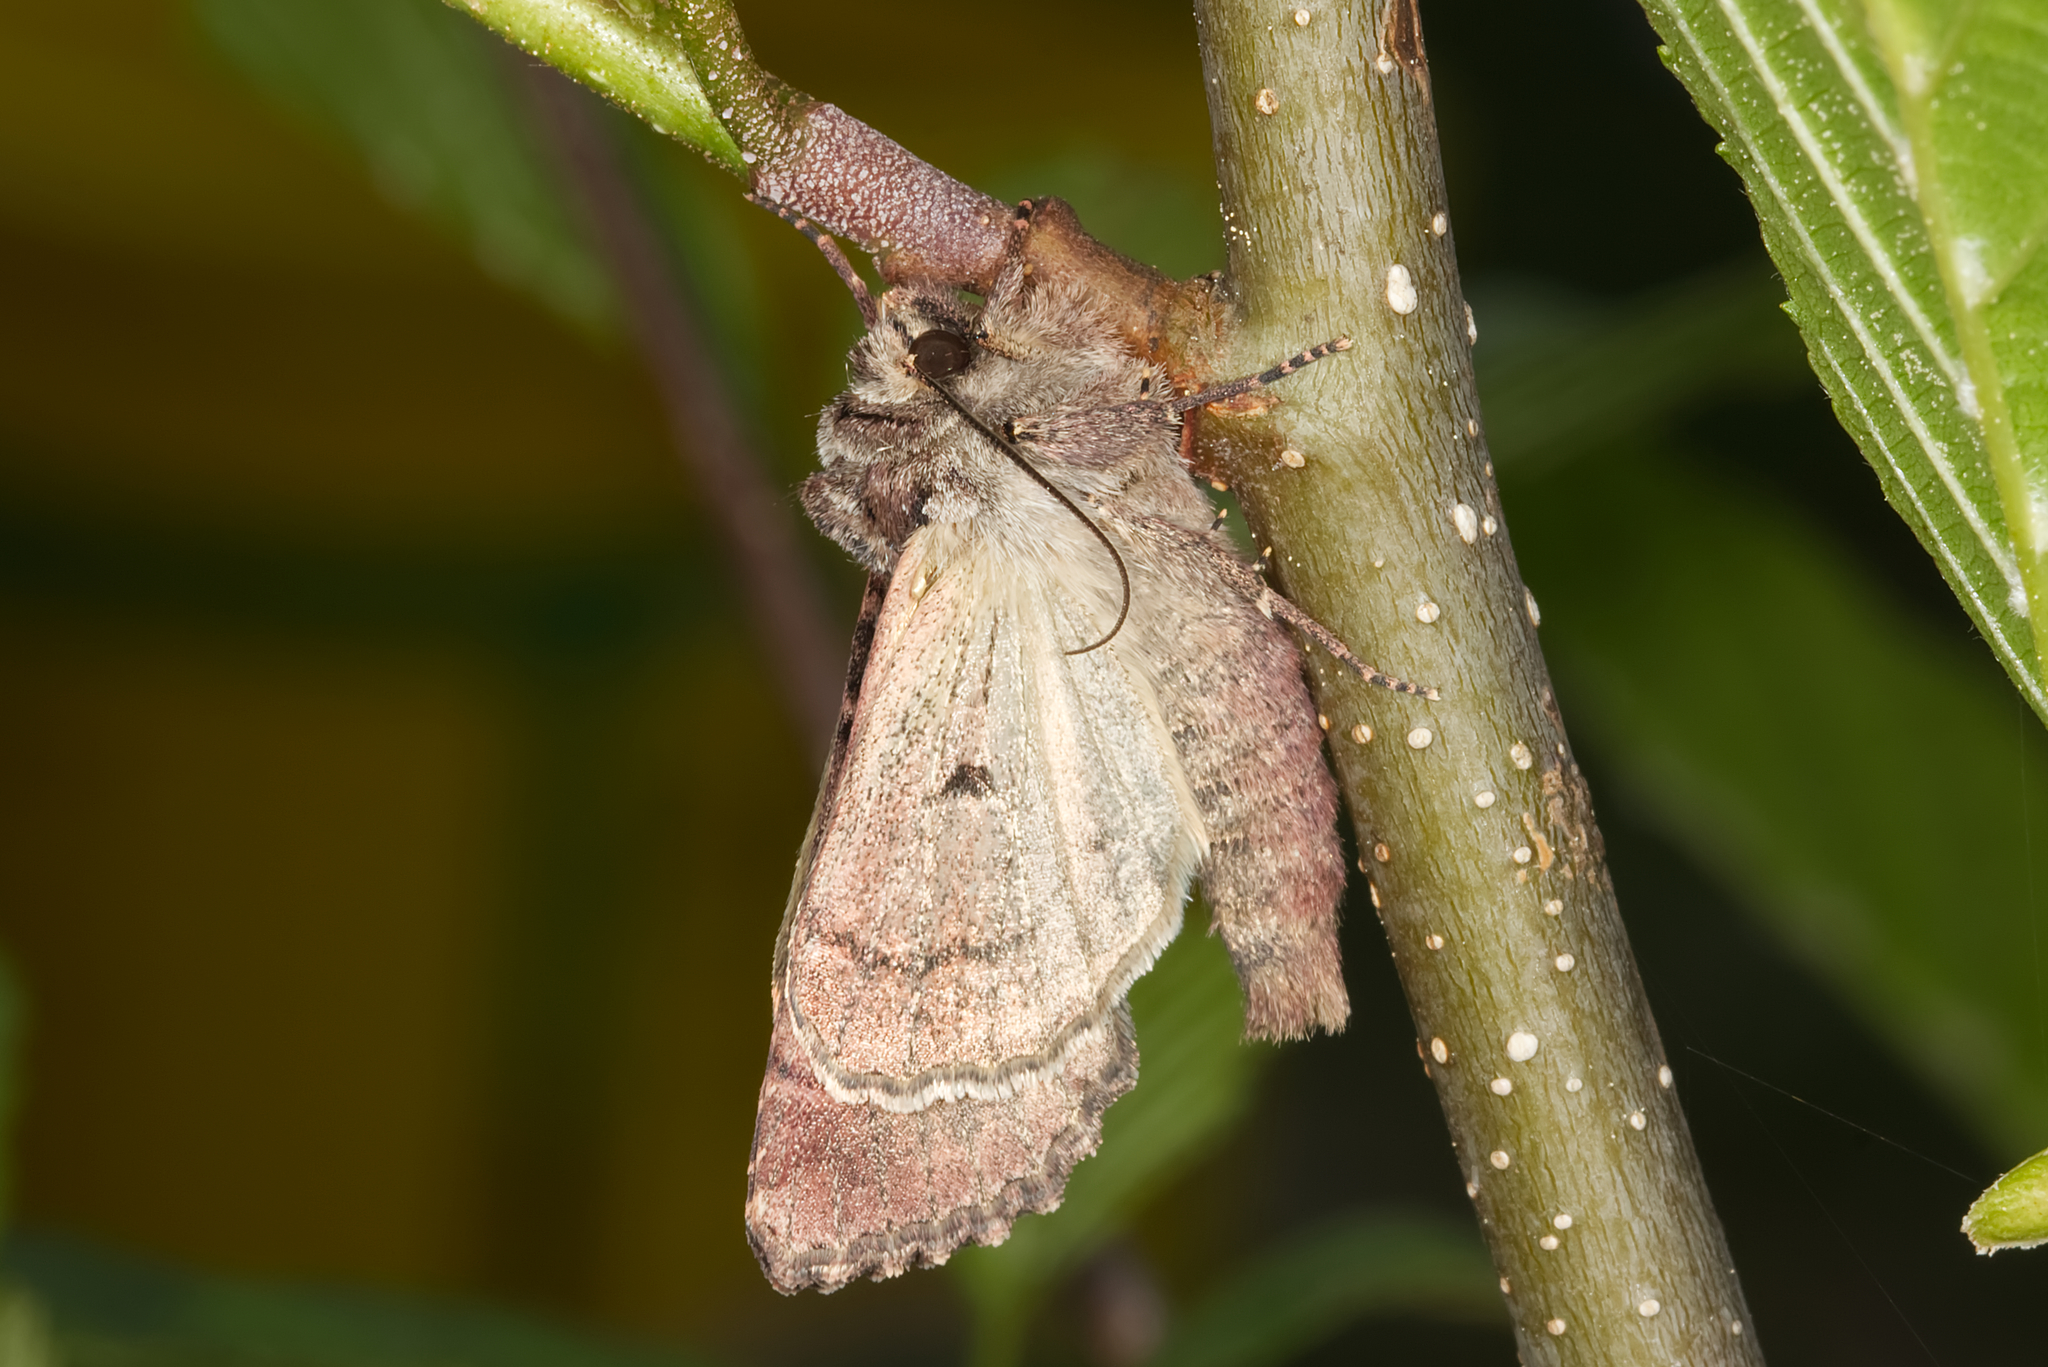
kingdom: Animalia
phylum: Arthropoda
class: Insecta
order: Lepidoptera
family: Noctuidae
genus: Lacanobia
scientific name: Lacanobia thalassina
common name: Pale-shouldered brocade
